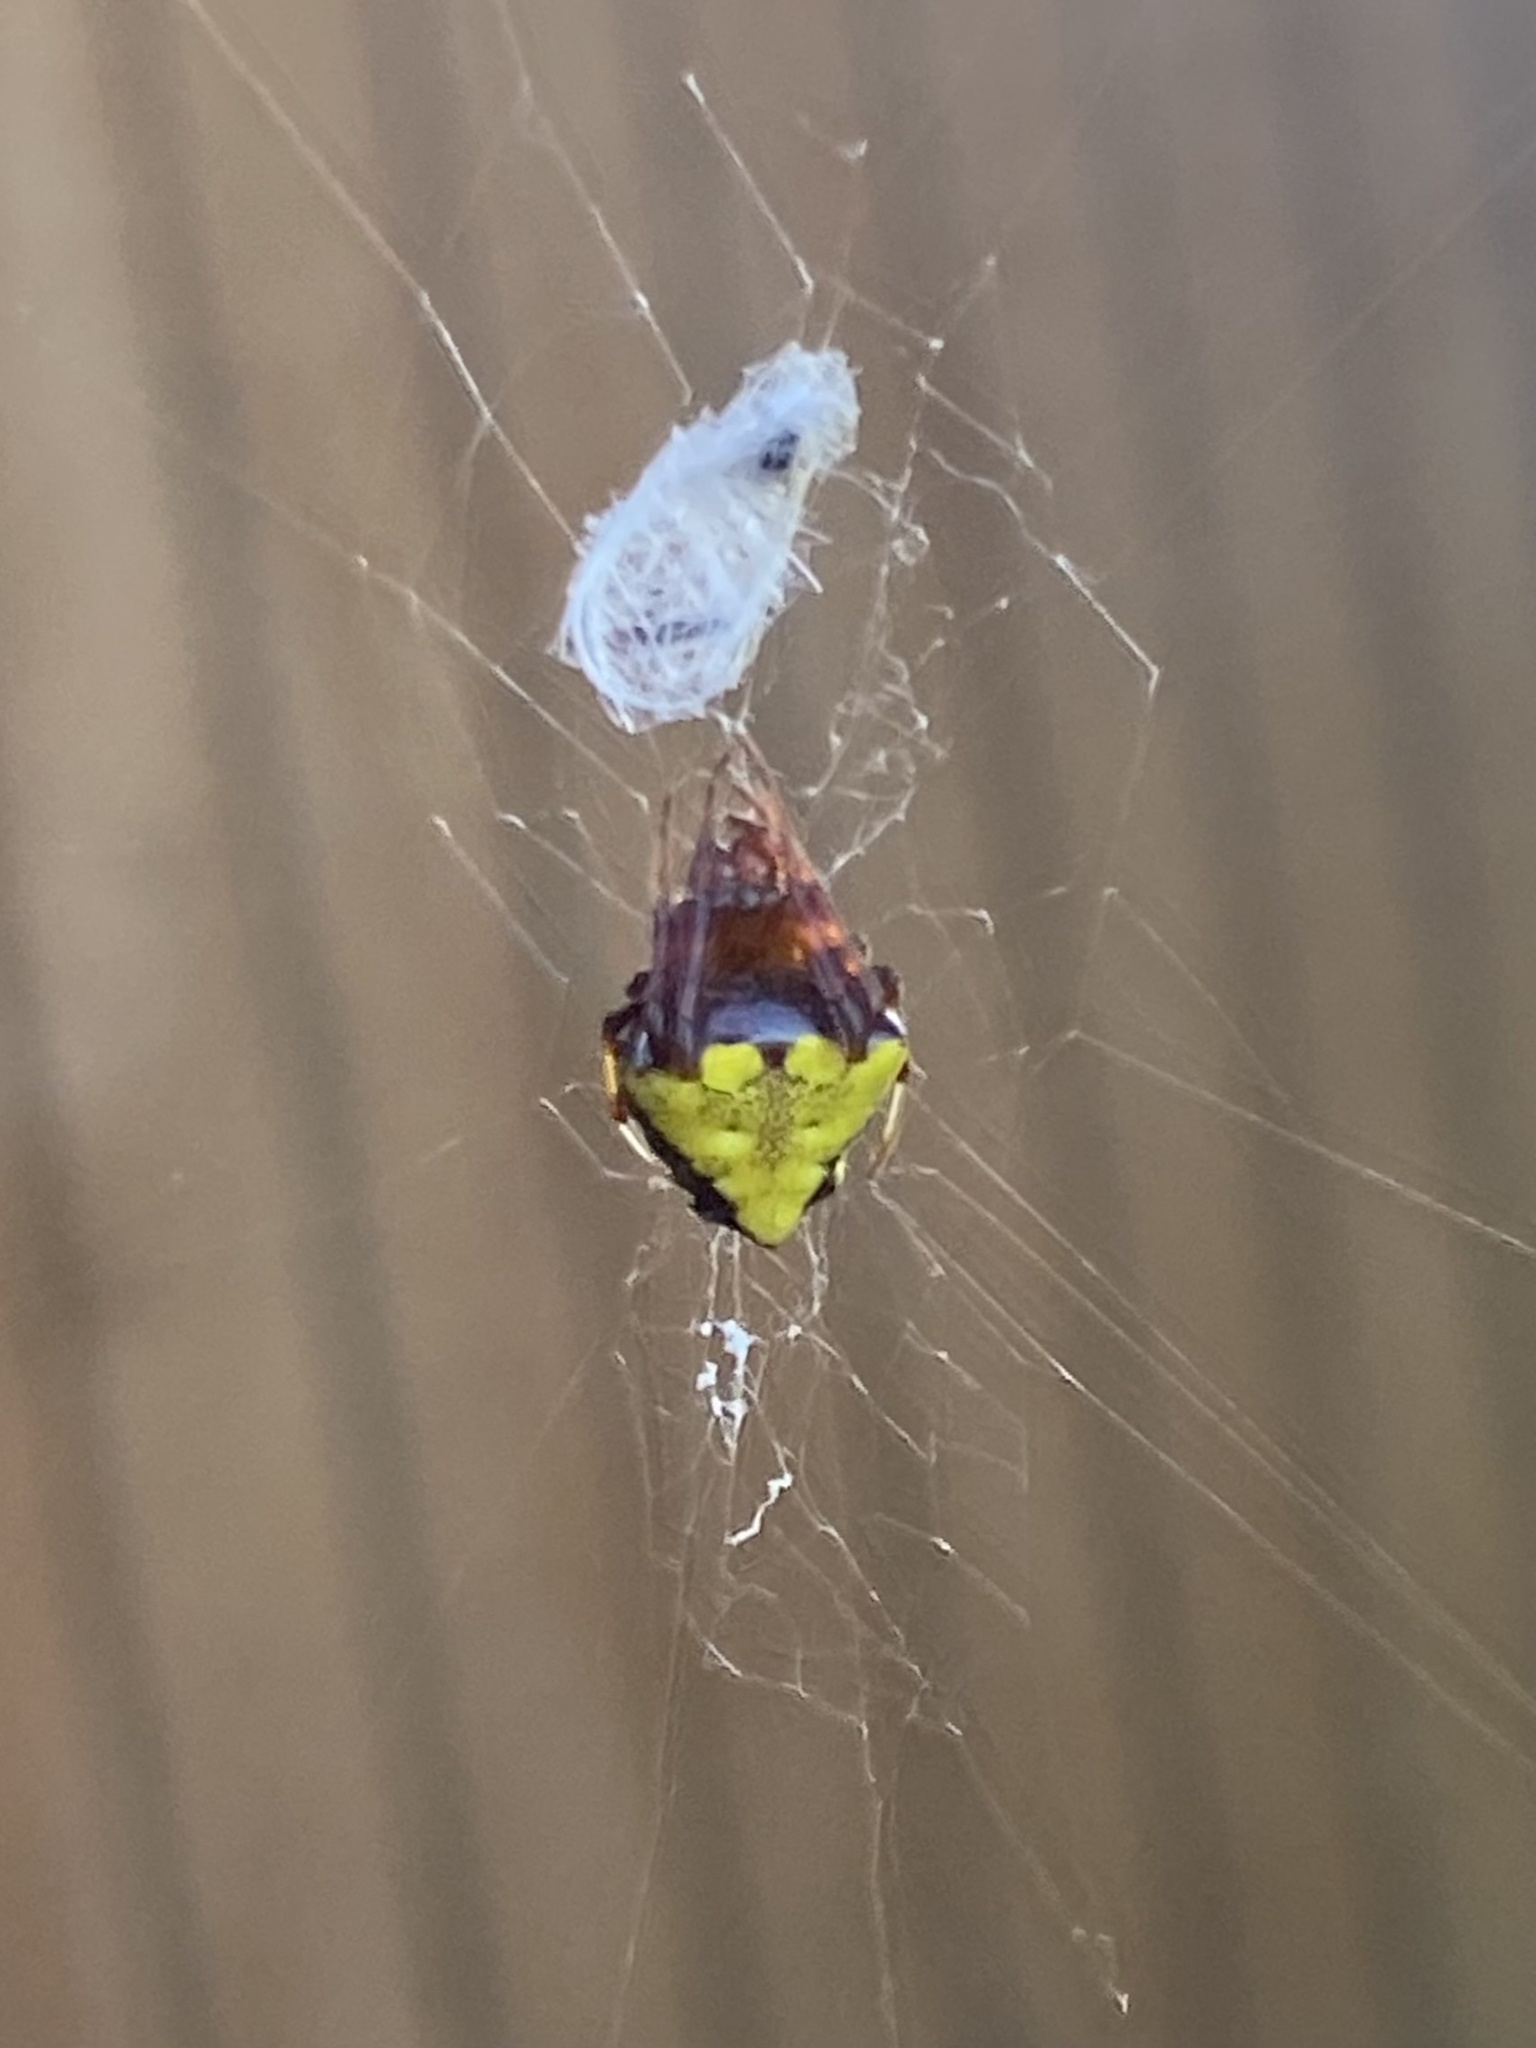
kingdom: Animalia
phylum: Arthropoda
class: Arachnida
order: Araneae
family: Araneidae
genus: Verrucosa
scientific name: Verrucosa arenata
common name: Orb weavers
